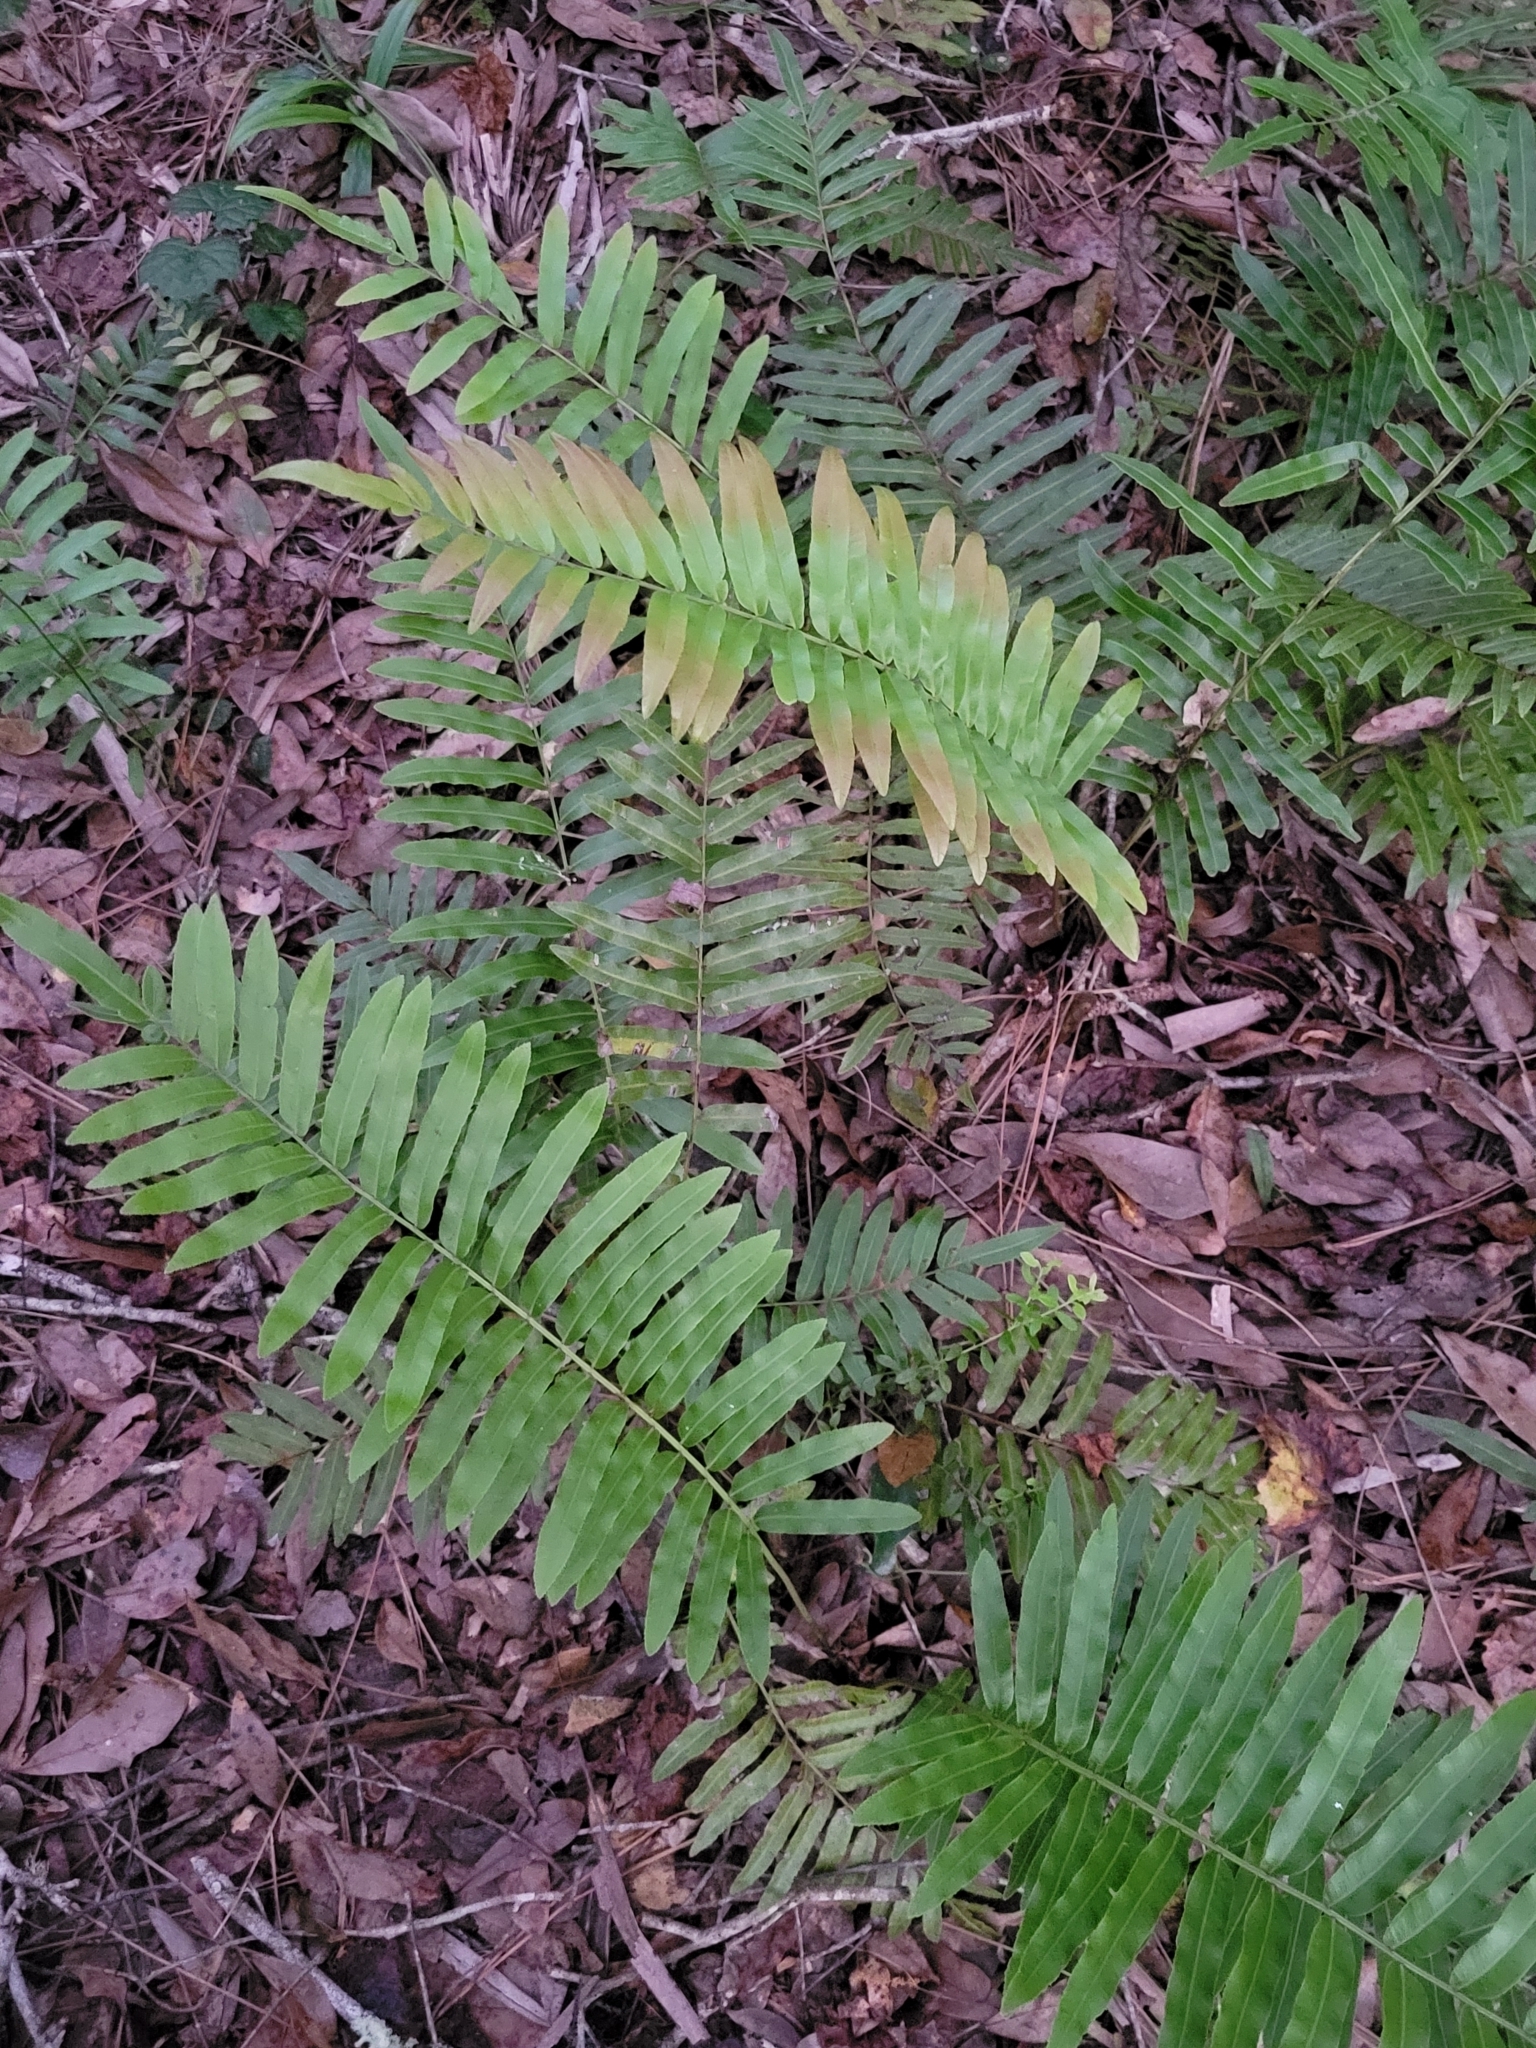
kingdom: Plantae
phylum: Tracheophyta
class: Polypodiopsida
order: Polypodiales
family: Blechnaceae
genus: Telmatoblechnum
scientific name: Telmatoblechnum serrulatum
